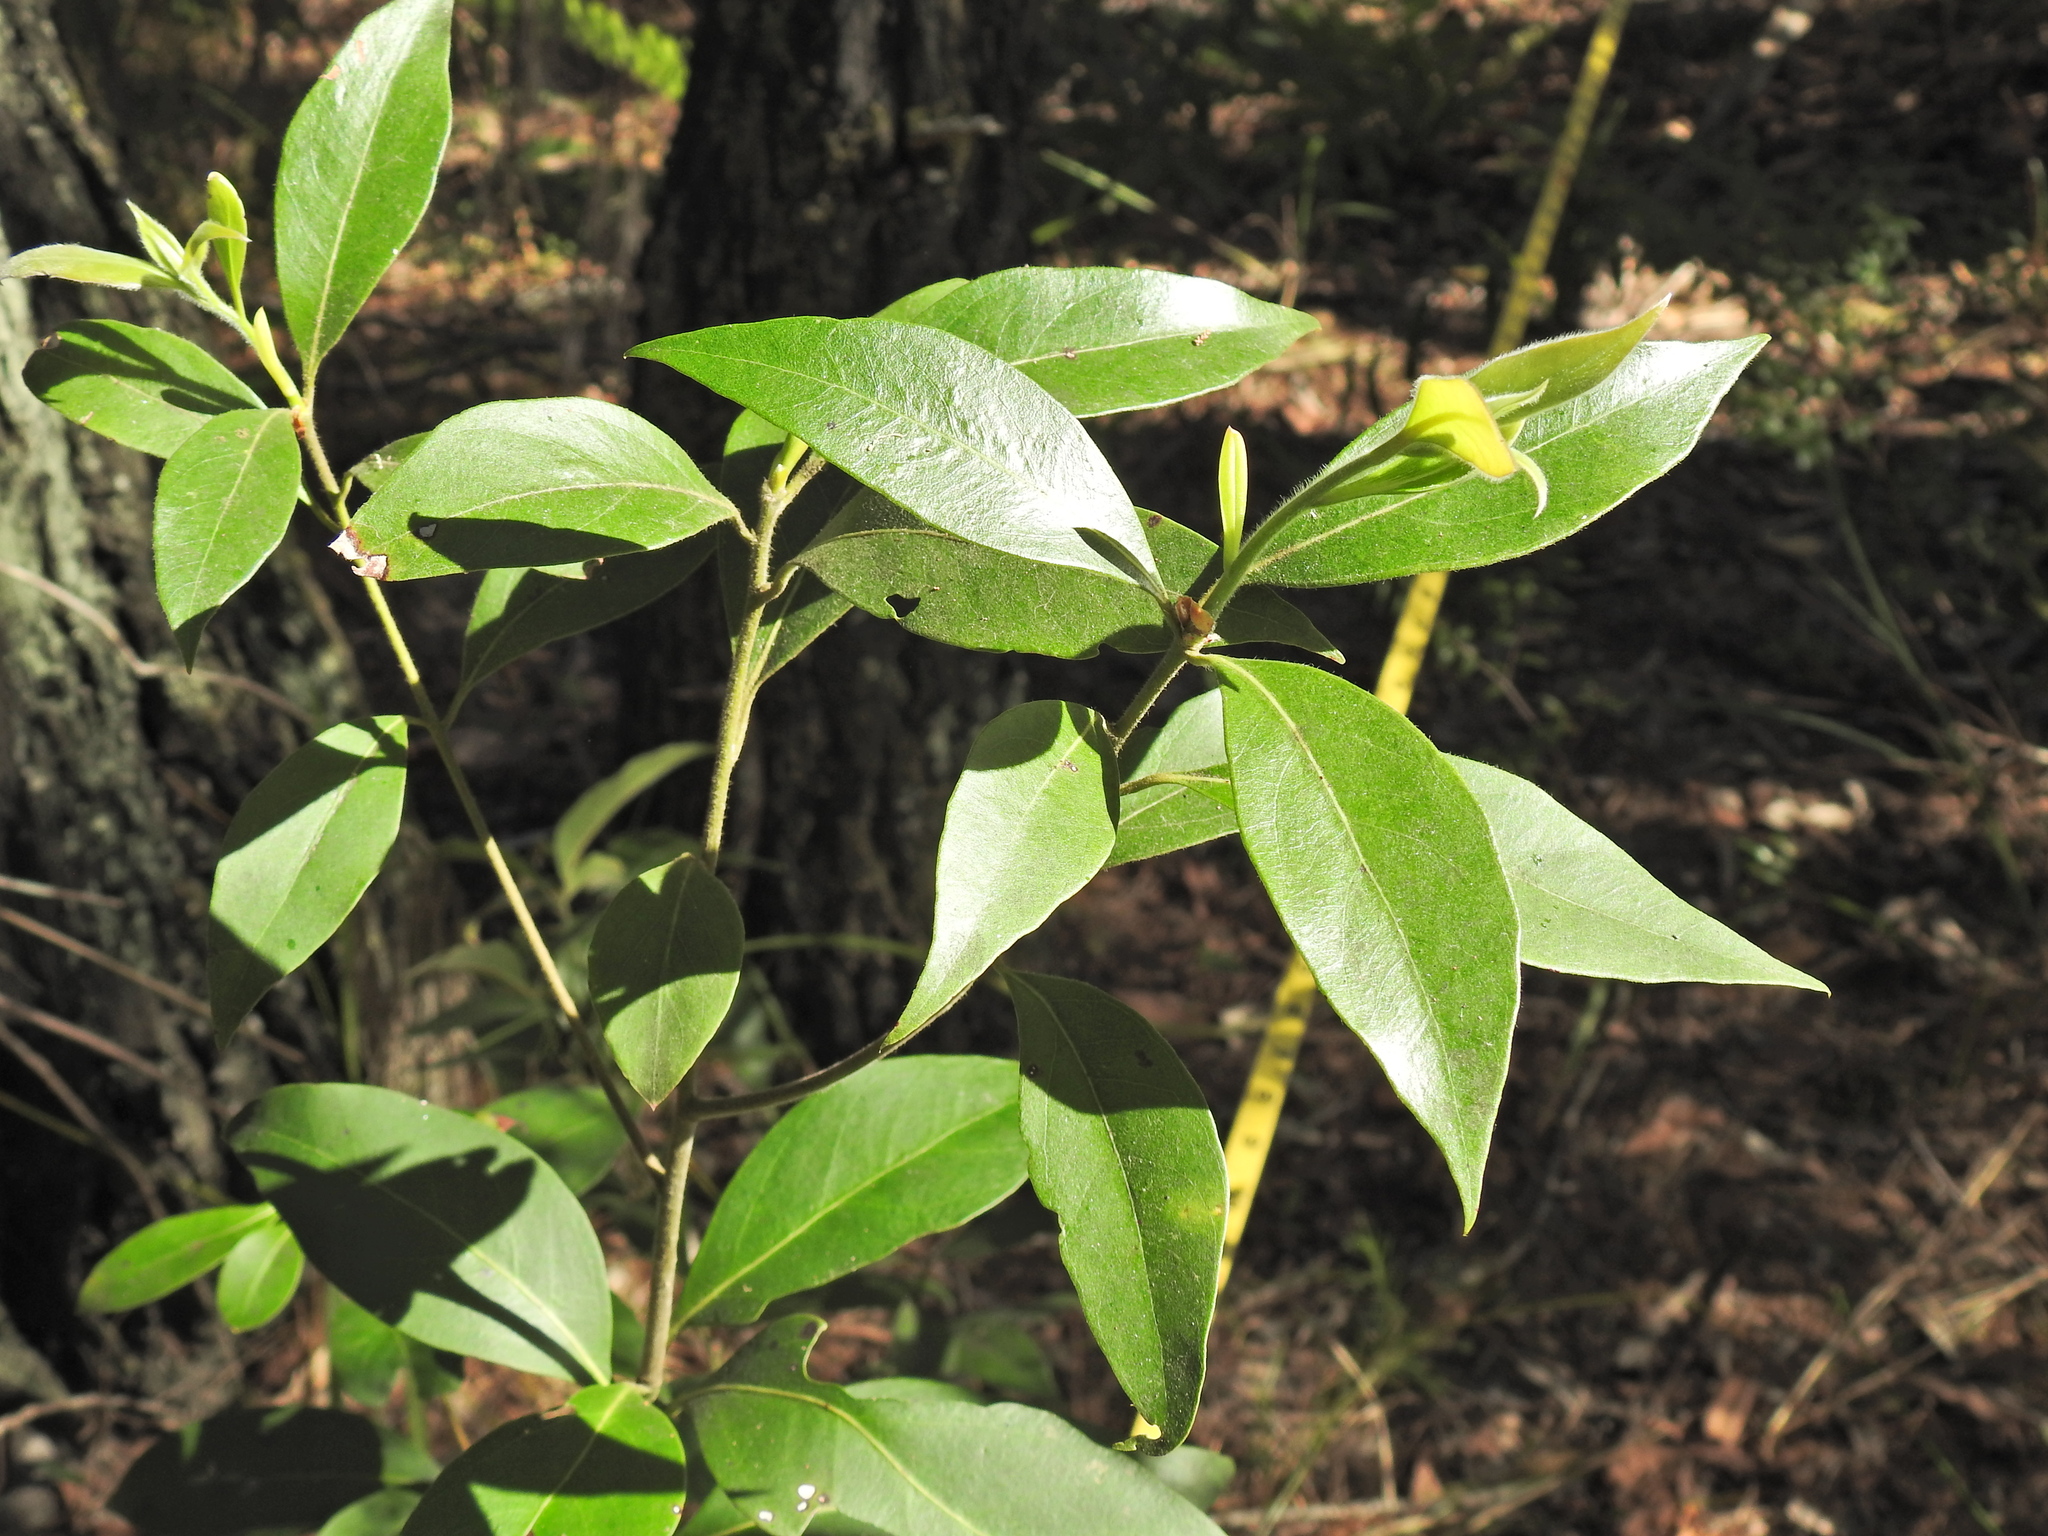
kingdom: Plantae
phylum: Tracheophyta
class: Magnoliopsida
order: Myrtales
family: Myrtaceae
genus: Lophostemon
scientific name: Lophostemon confertus
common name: Brisbane box
